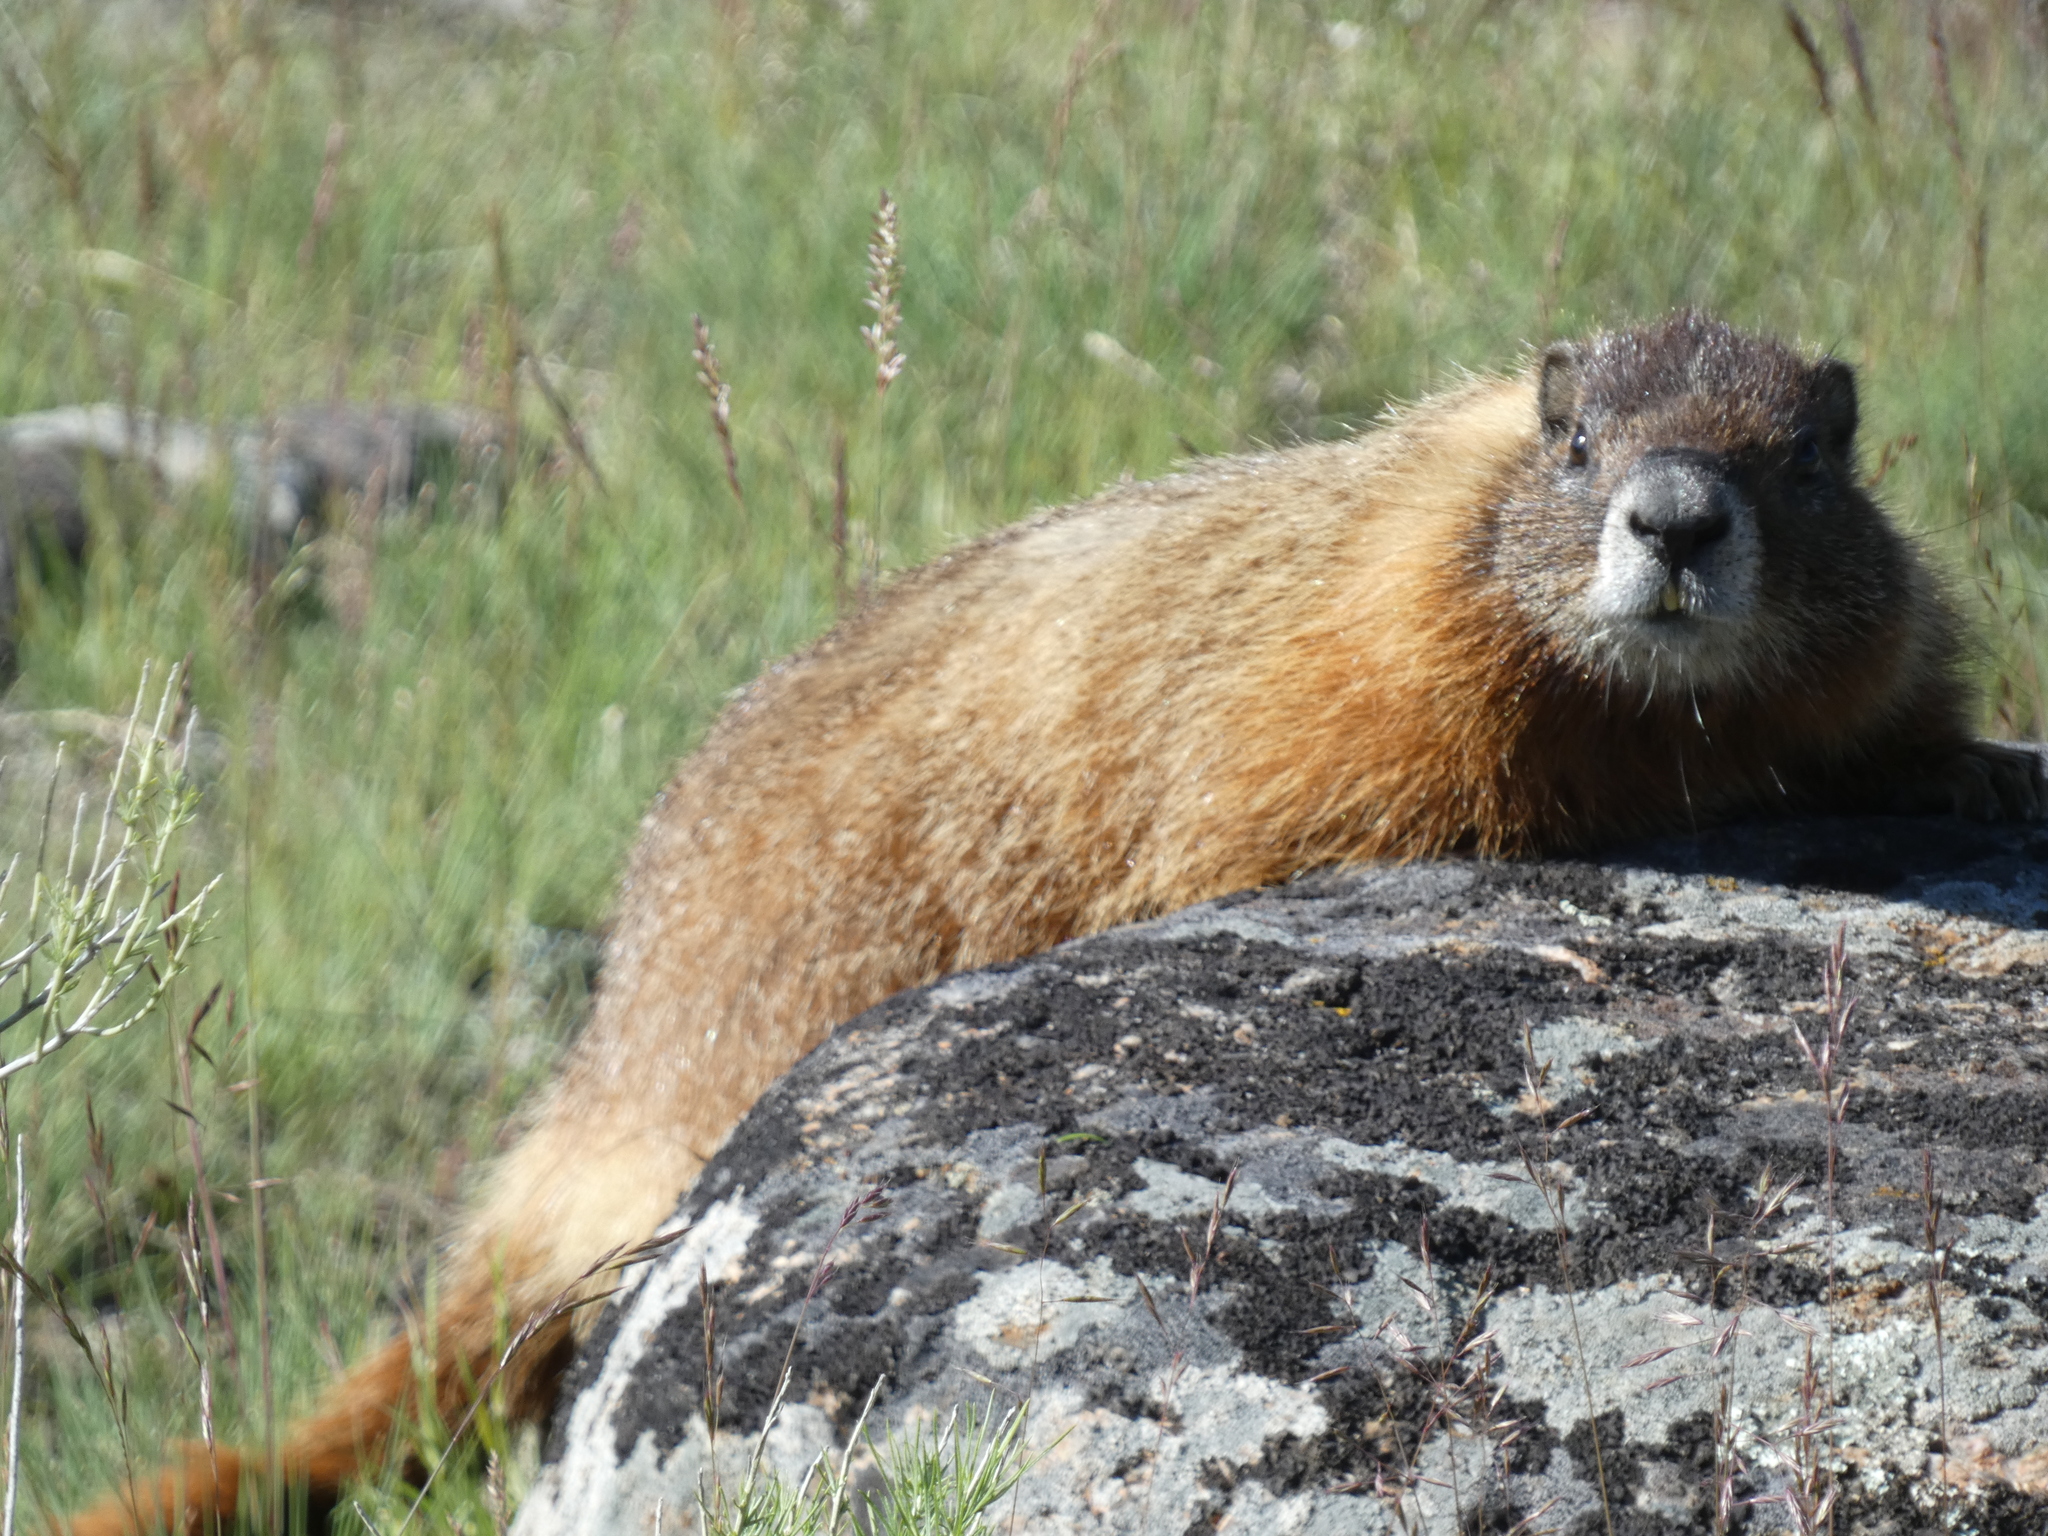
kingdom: Animalia
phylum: Chordata
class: Mammalia
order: Rodentia
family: Sciuridae
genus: Marmota
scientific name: Marmota flaviventris
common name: Yellow-bellied marmot
